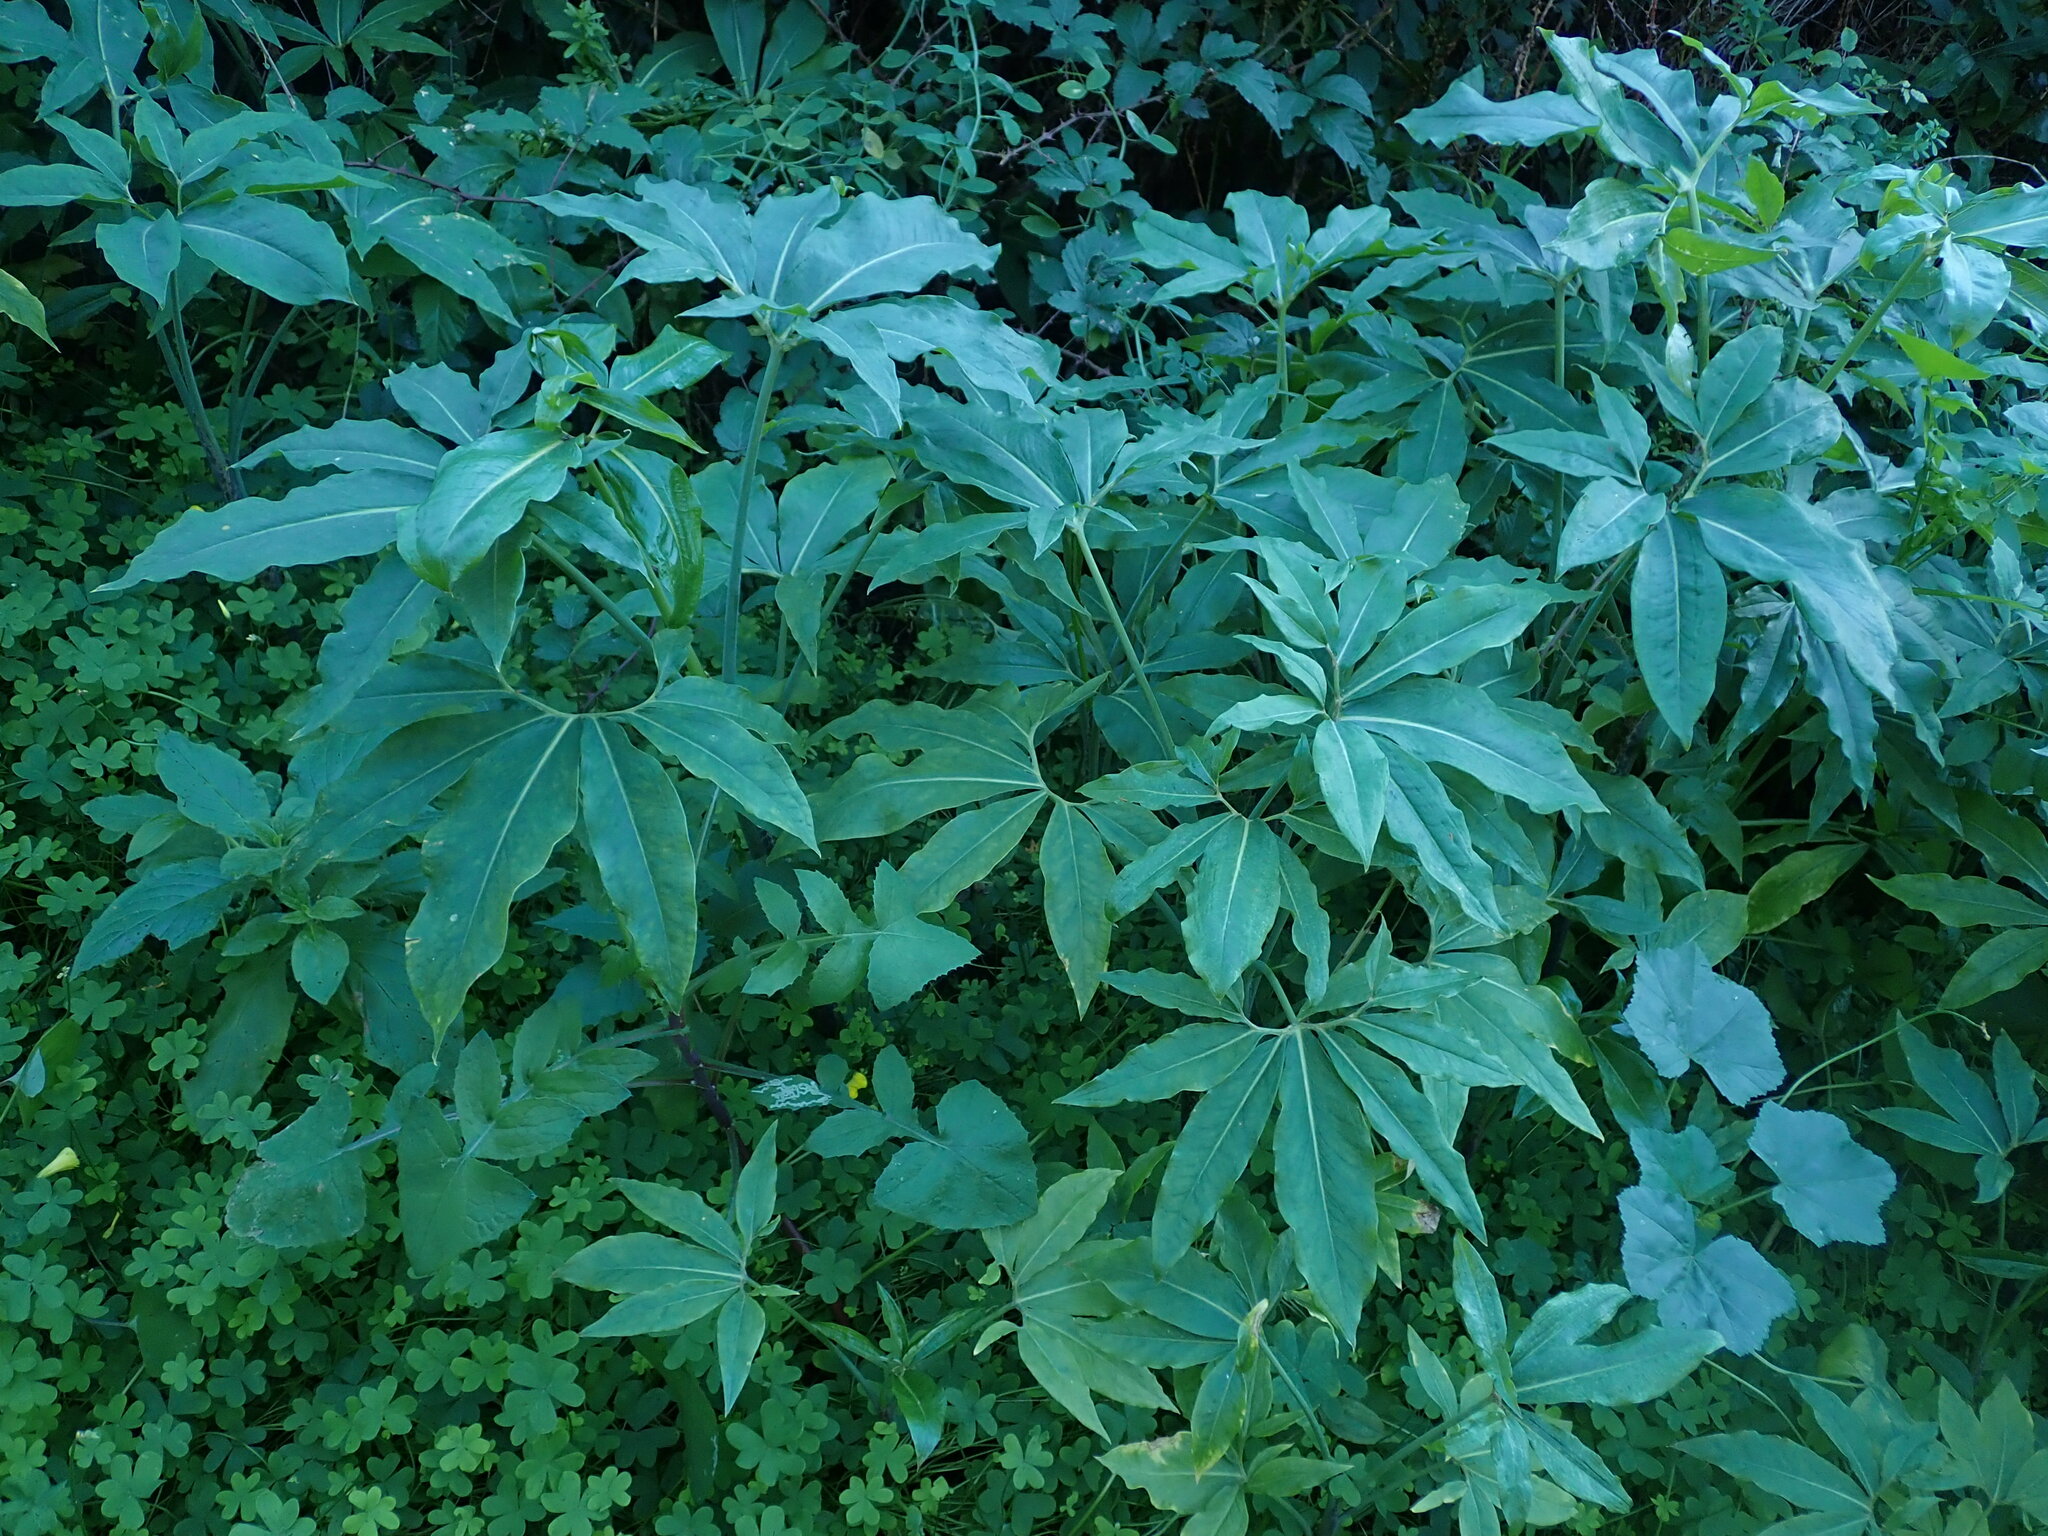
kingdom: Plantae
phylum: Tracheophyta
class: Liliopsida
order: Alismatales
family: Araceae
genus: Dracunculus
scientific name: Dracunculus canariensis
